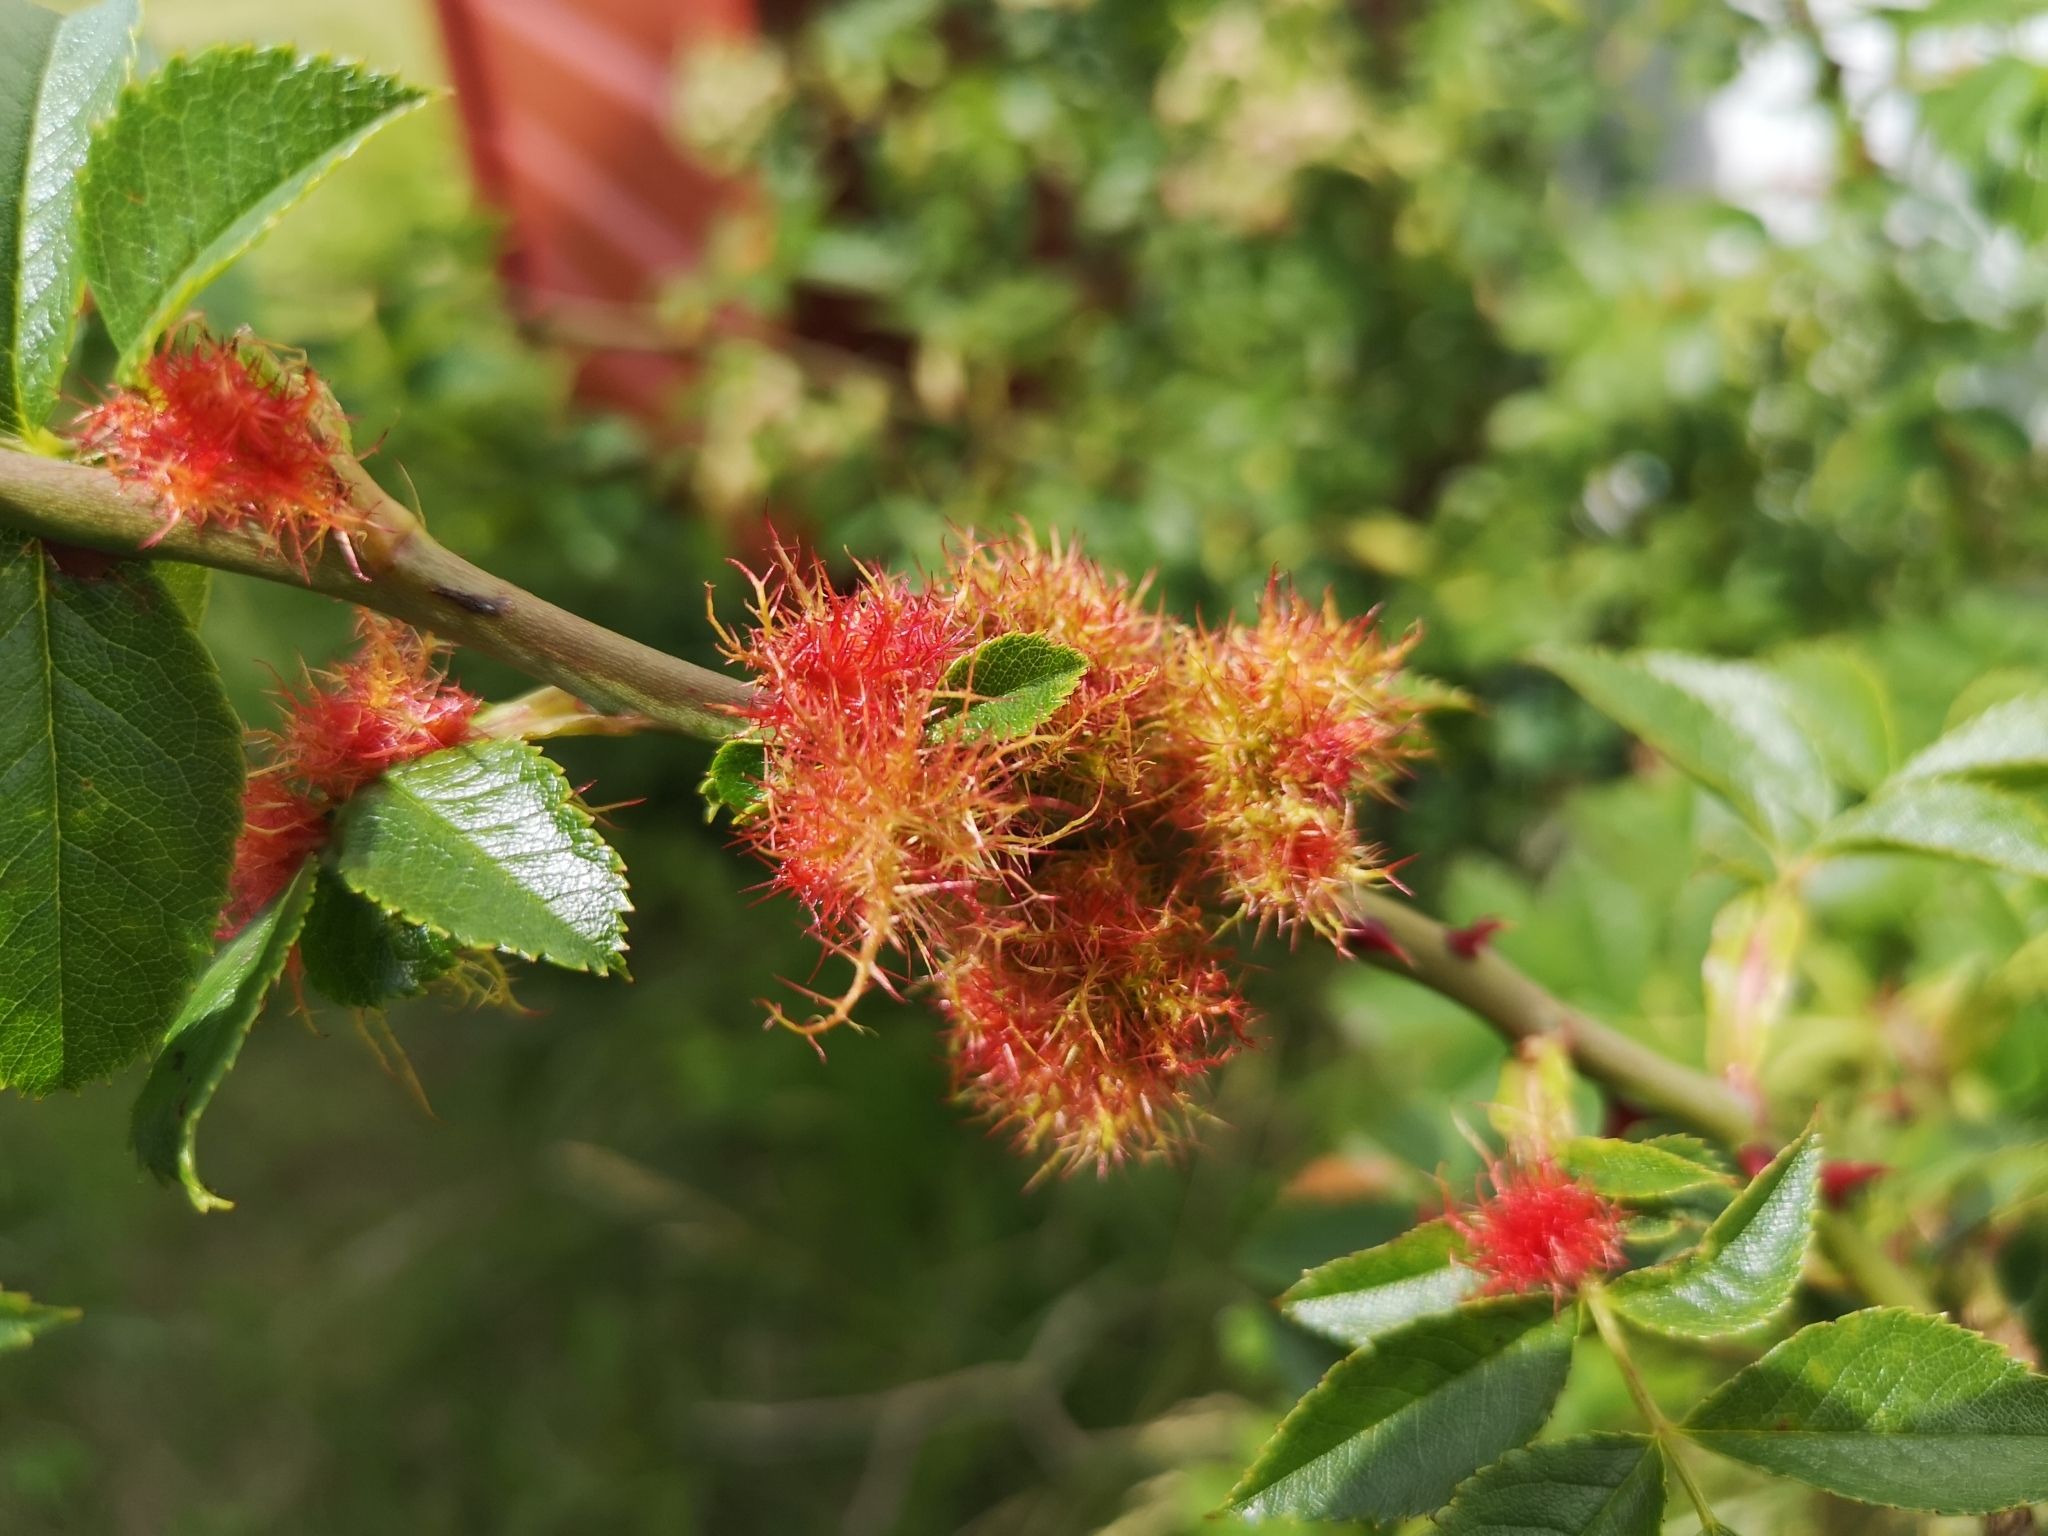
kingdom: Animalia
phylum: Arthropoda
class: Insecta
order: Hymenoptera
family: Cynipidae
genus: Diplolepis
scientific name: Diplolepis rosae
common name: Bedeguar gall
